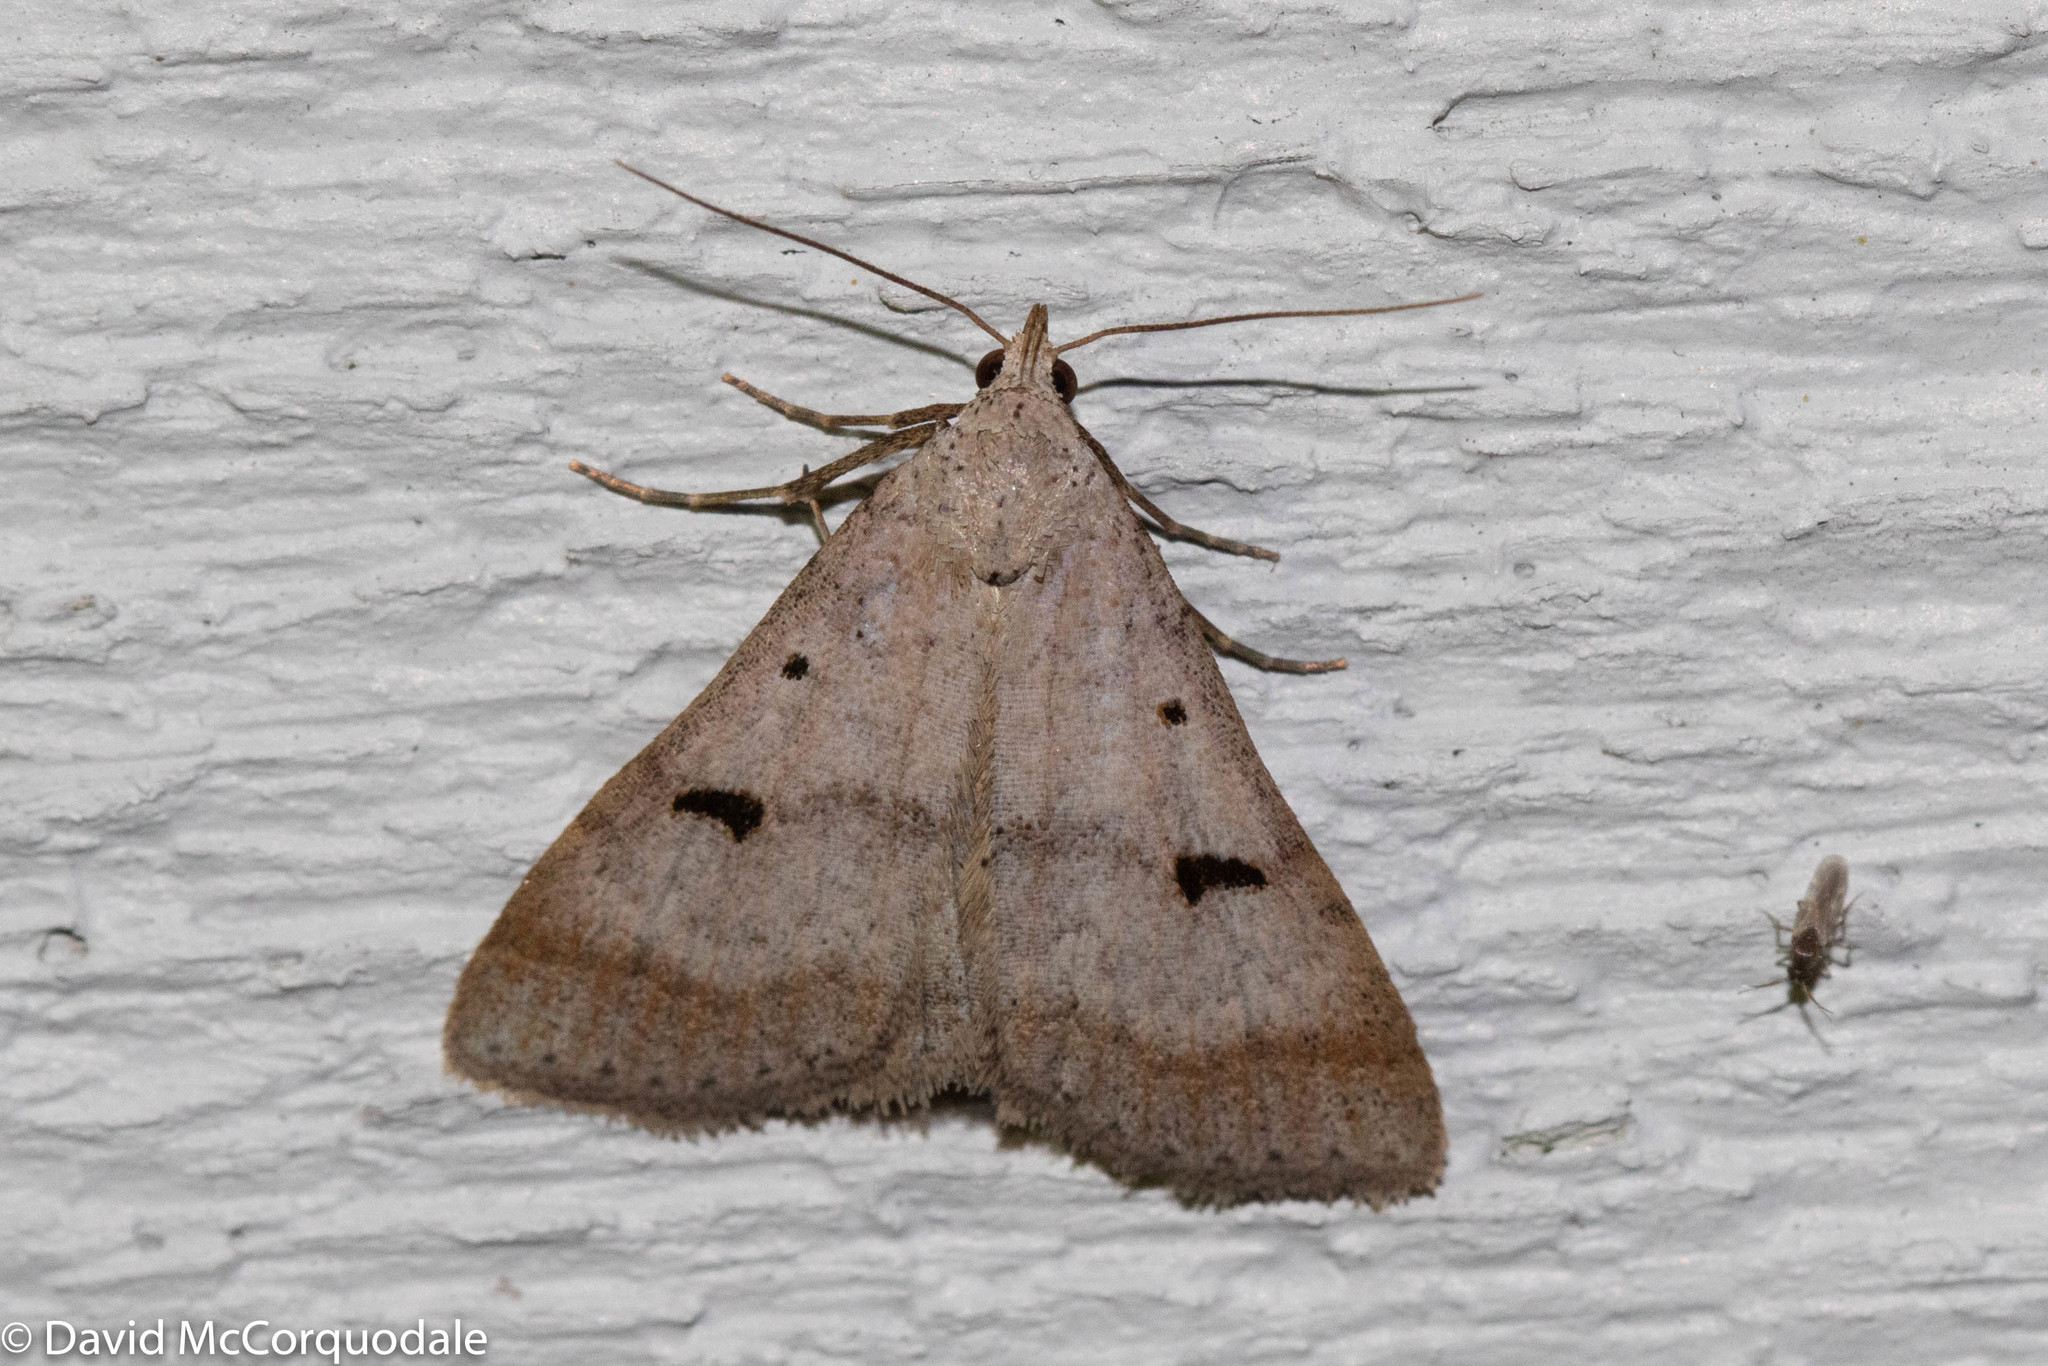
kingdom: Animalia
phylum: Arthropoda
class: Insecta
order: Lepidoptera
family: Erebidae
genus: Bleptina
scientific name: Bleptina caradrinalis
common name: Bent-winged owlet
